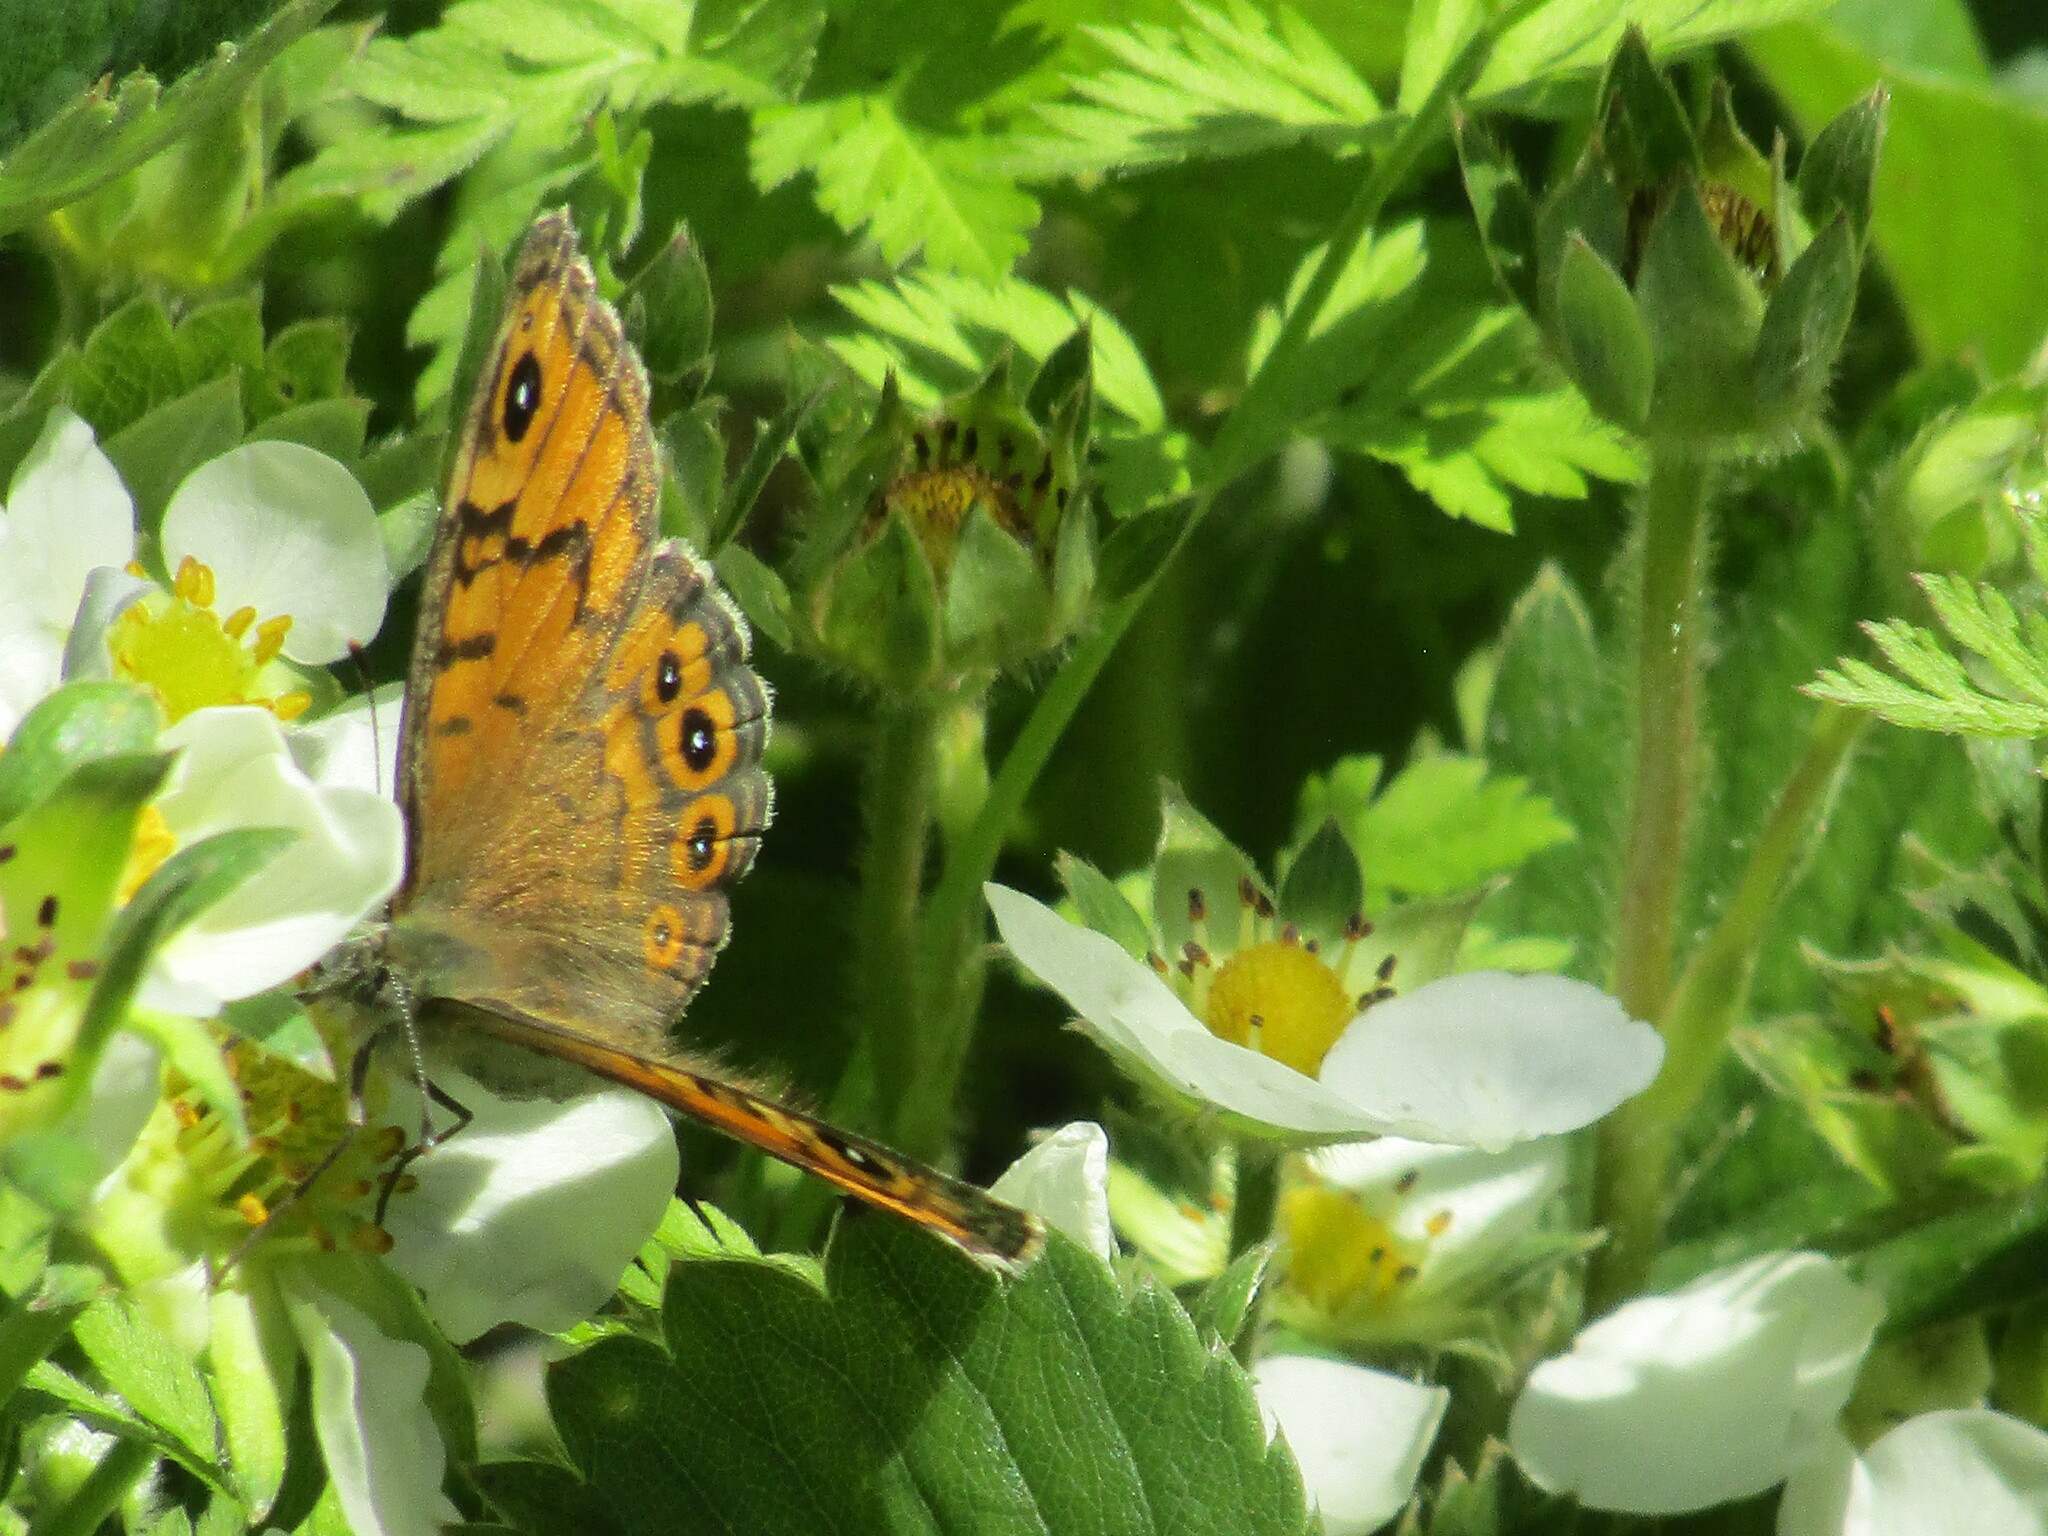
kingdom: Animalia
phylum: Arthropoda
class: Insecta
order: Lepidoptera
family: Nymphalidae
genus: Pararge
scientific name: Pararge Lasiommata megera
